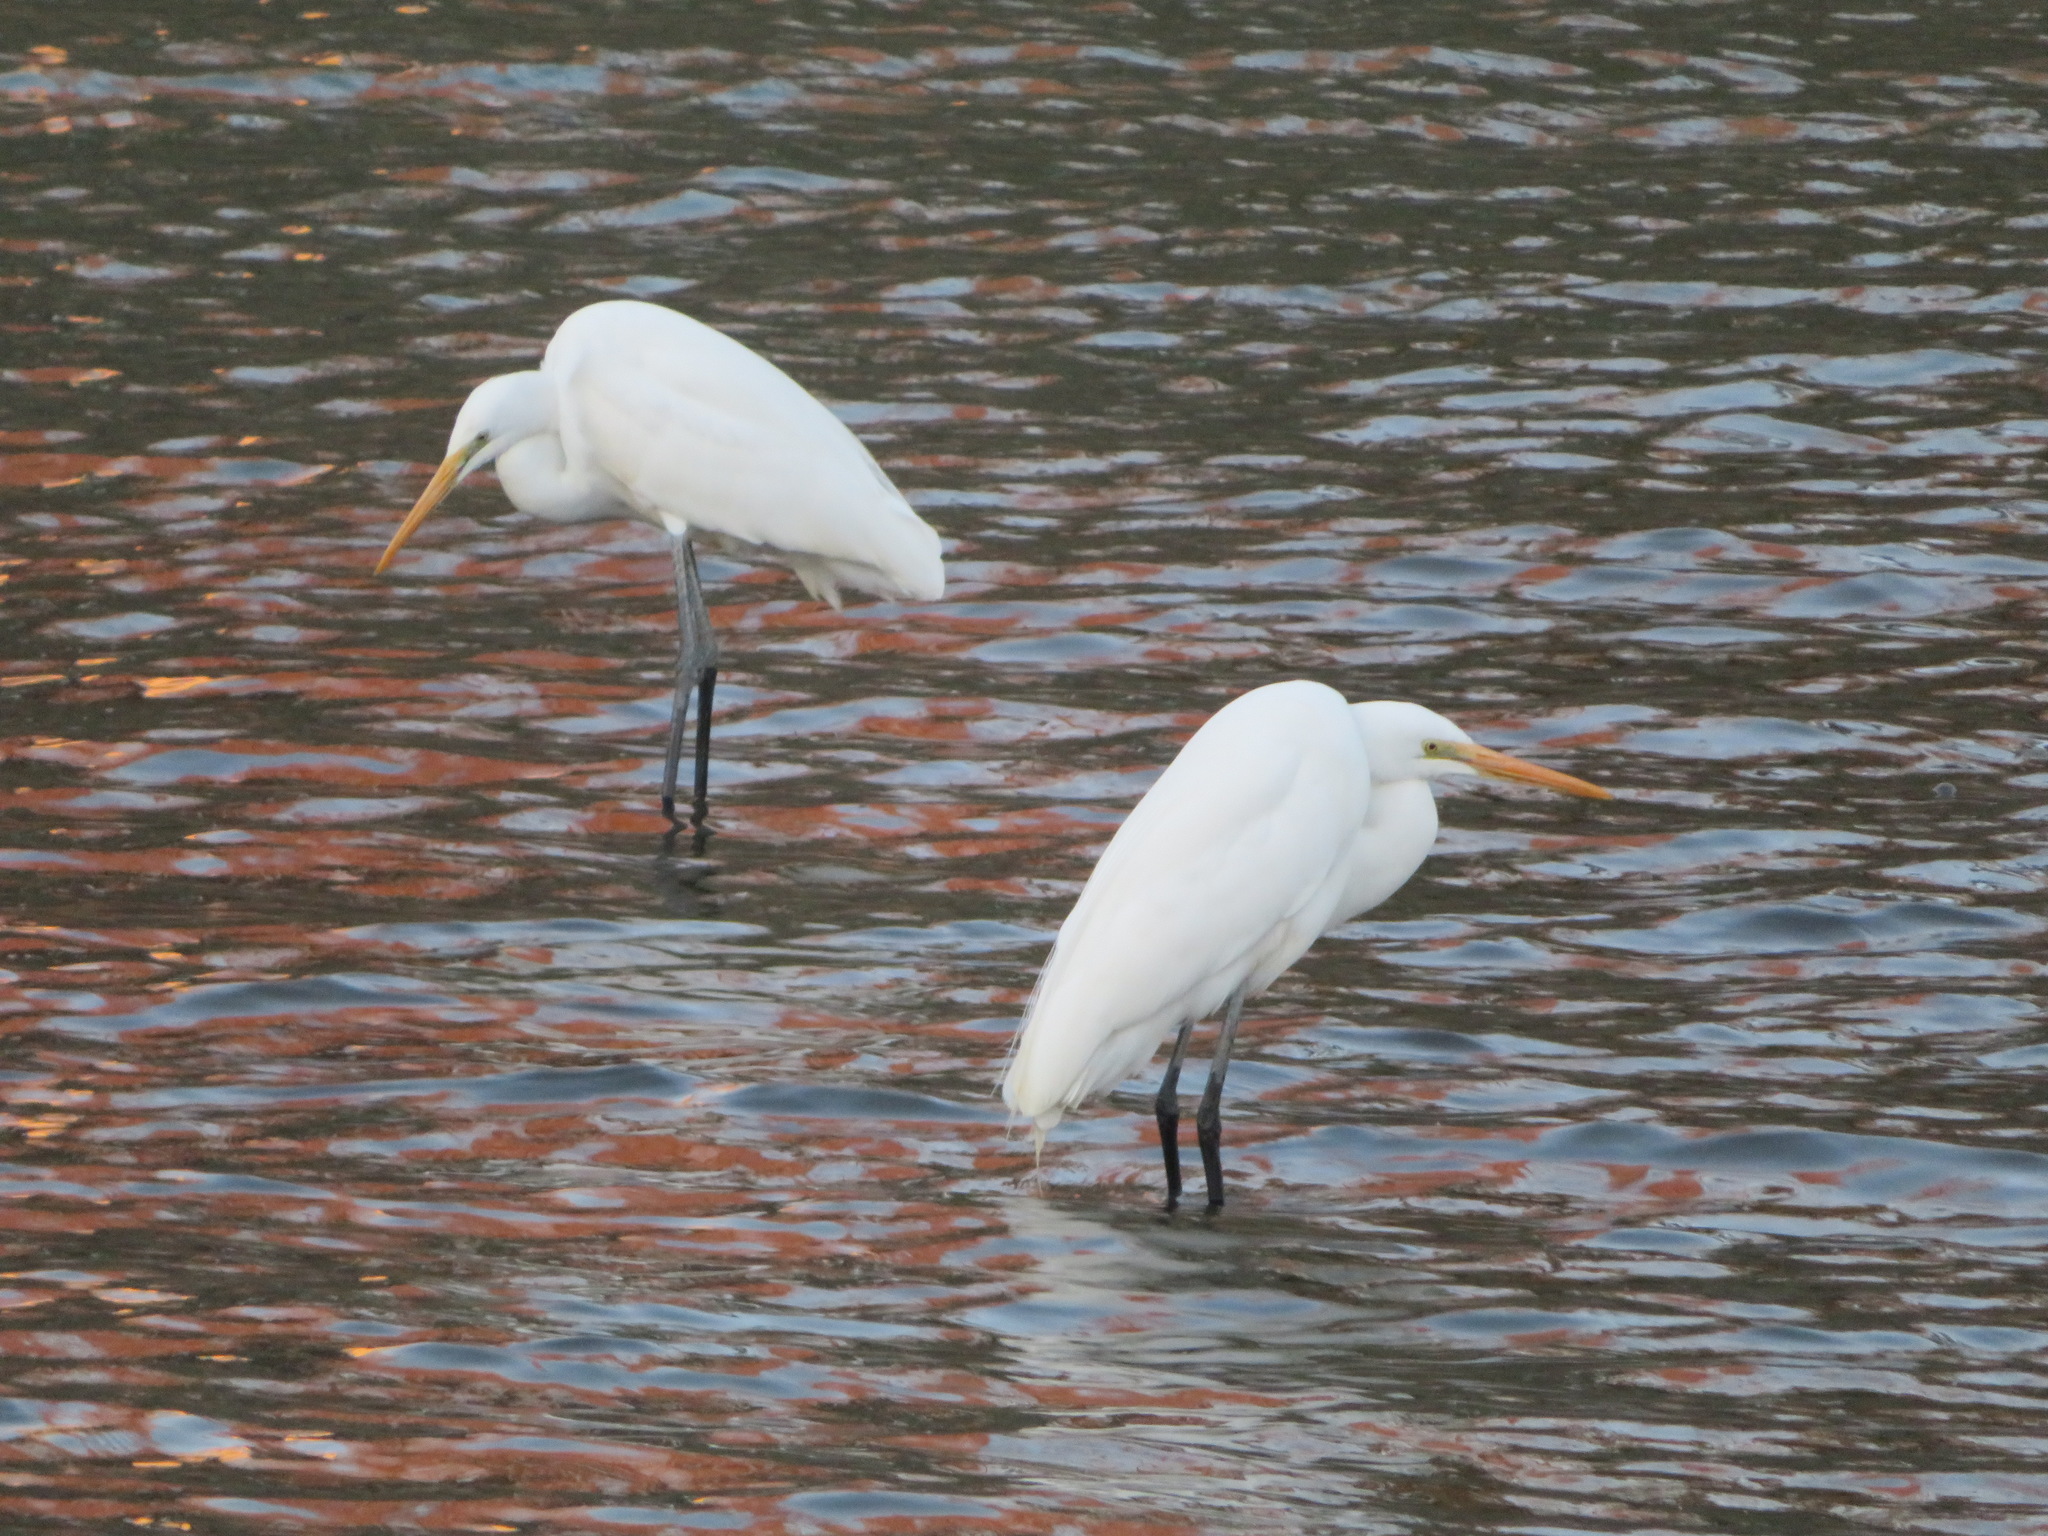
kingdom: Animalia
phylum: Chordata
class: Aves
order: Pelecaniformes
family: Ardeidae
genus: Ardea
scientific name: Ardea modesta
